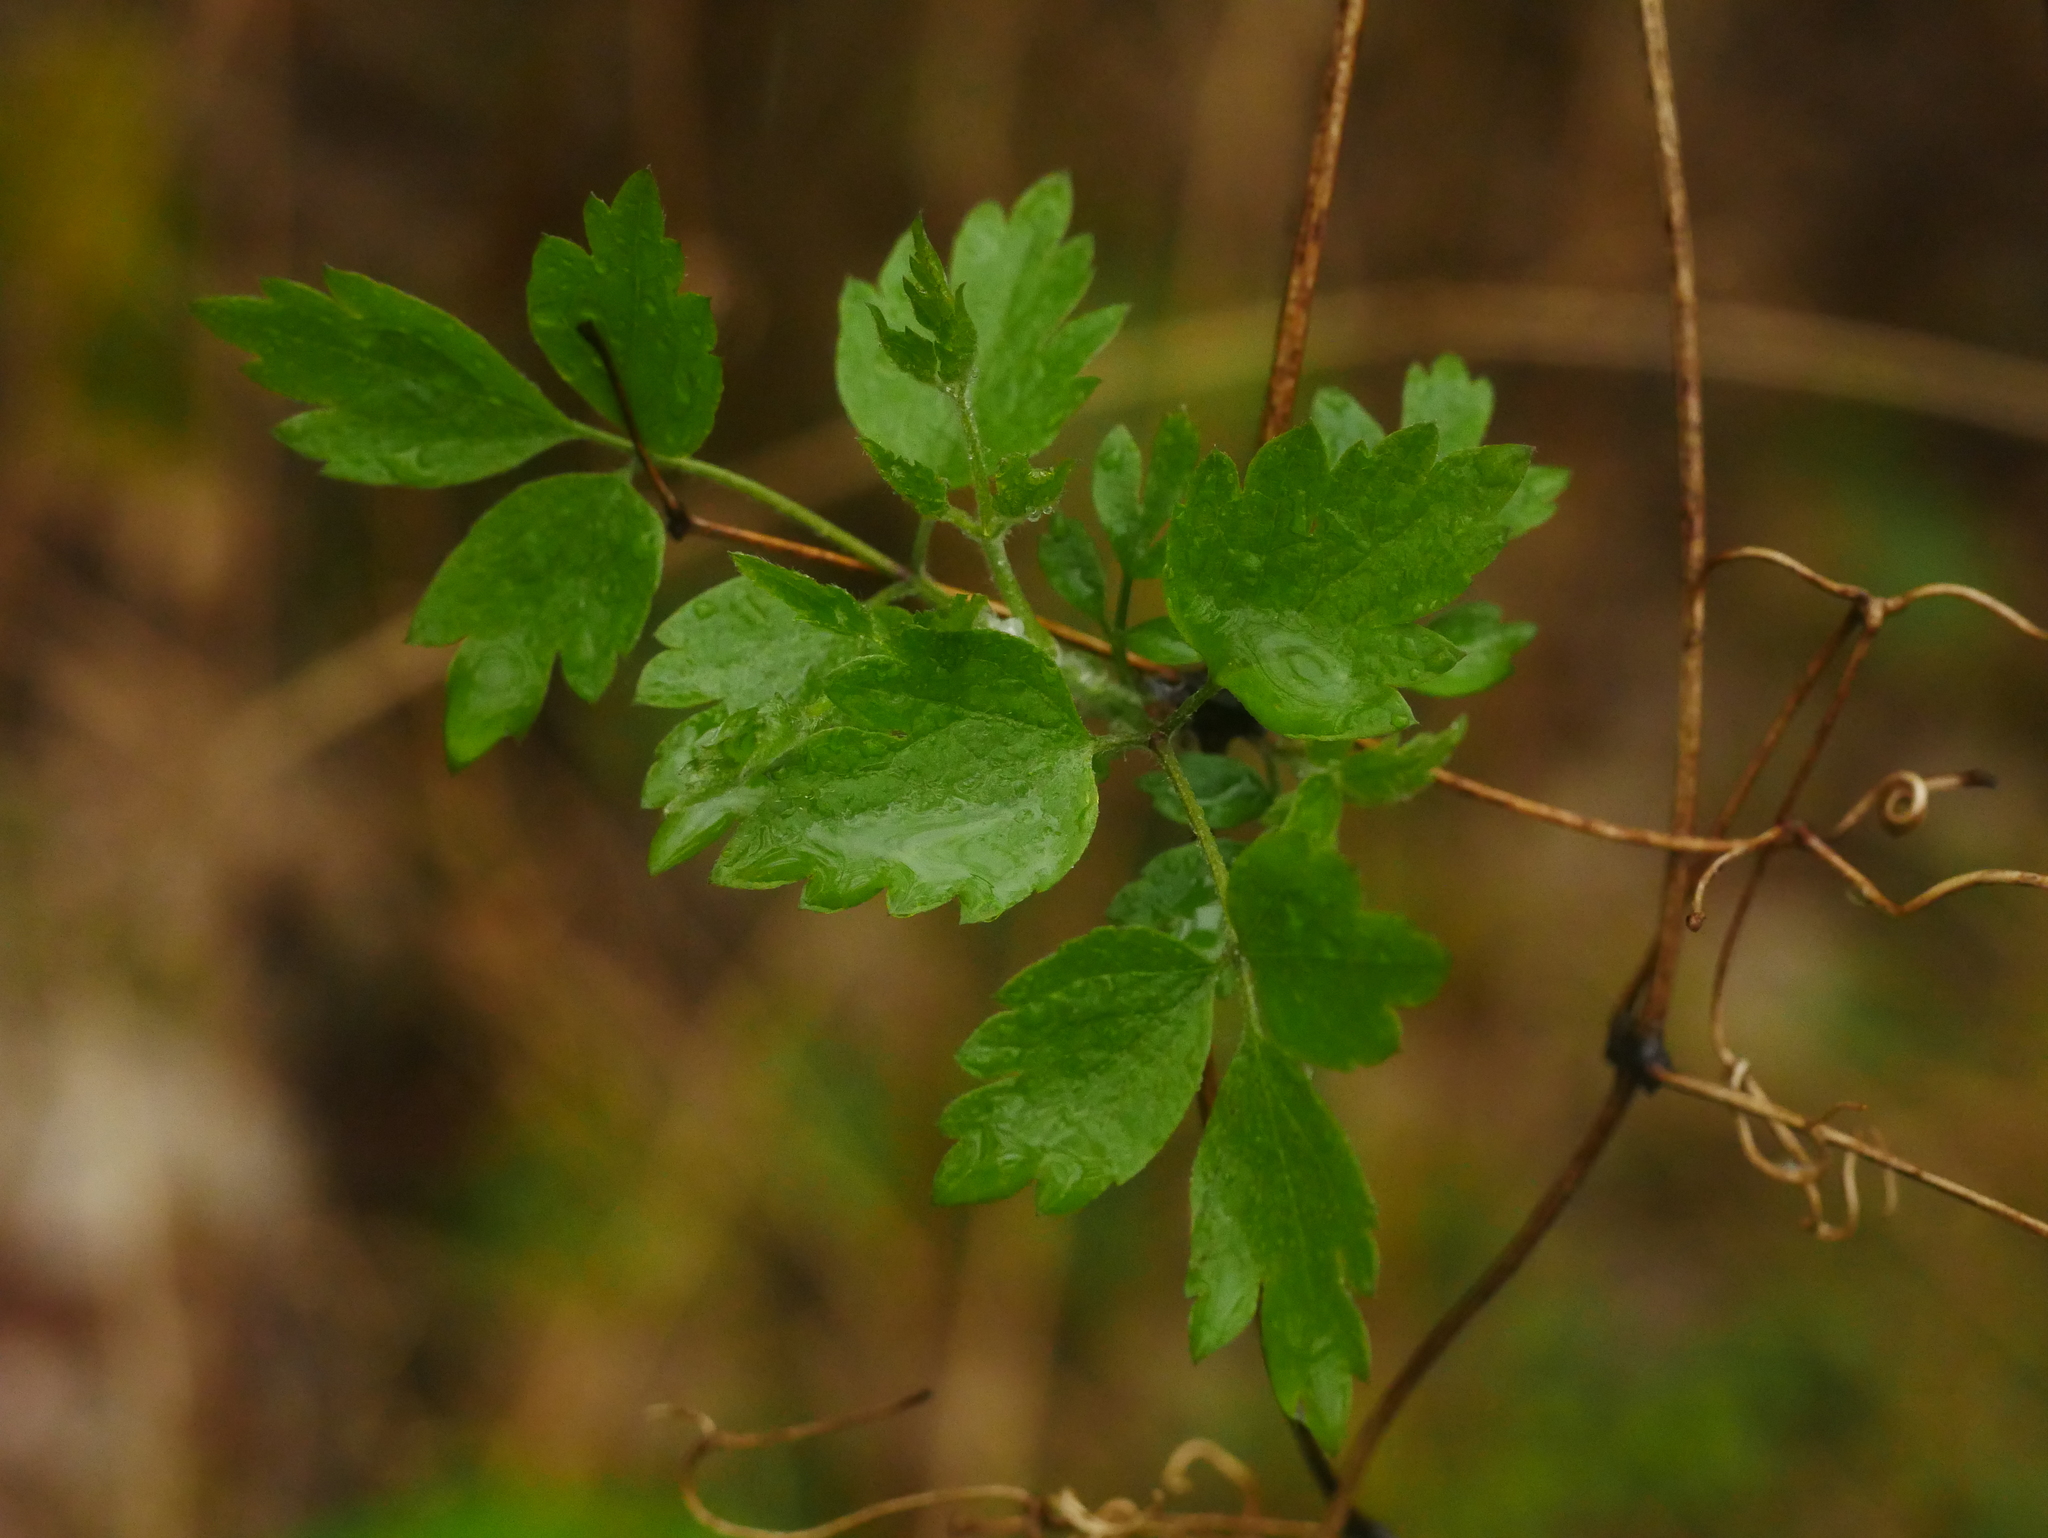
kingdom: Plantae
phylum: Tracheophyta
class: Magnoliopsida
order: Ranunculales
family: Ranunculaceae
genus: Clematis
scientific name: Clematis vitalba
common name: Evergreen clematis
